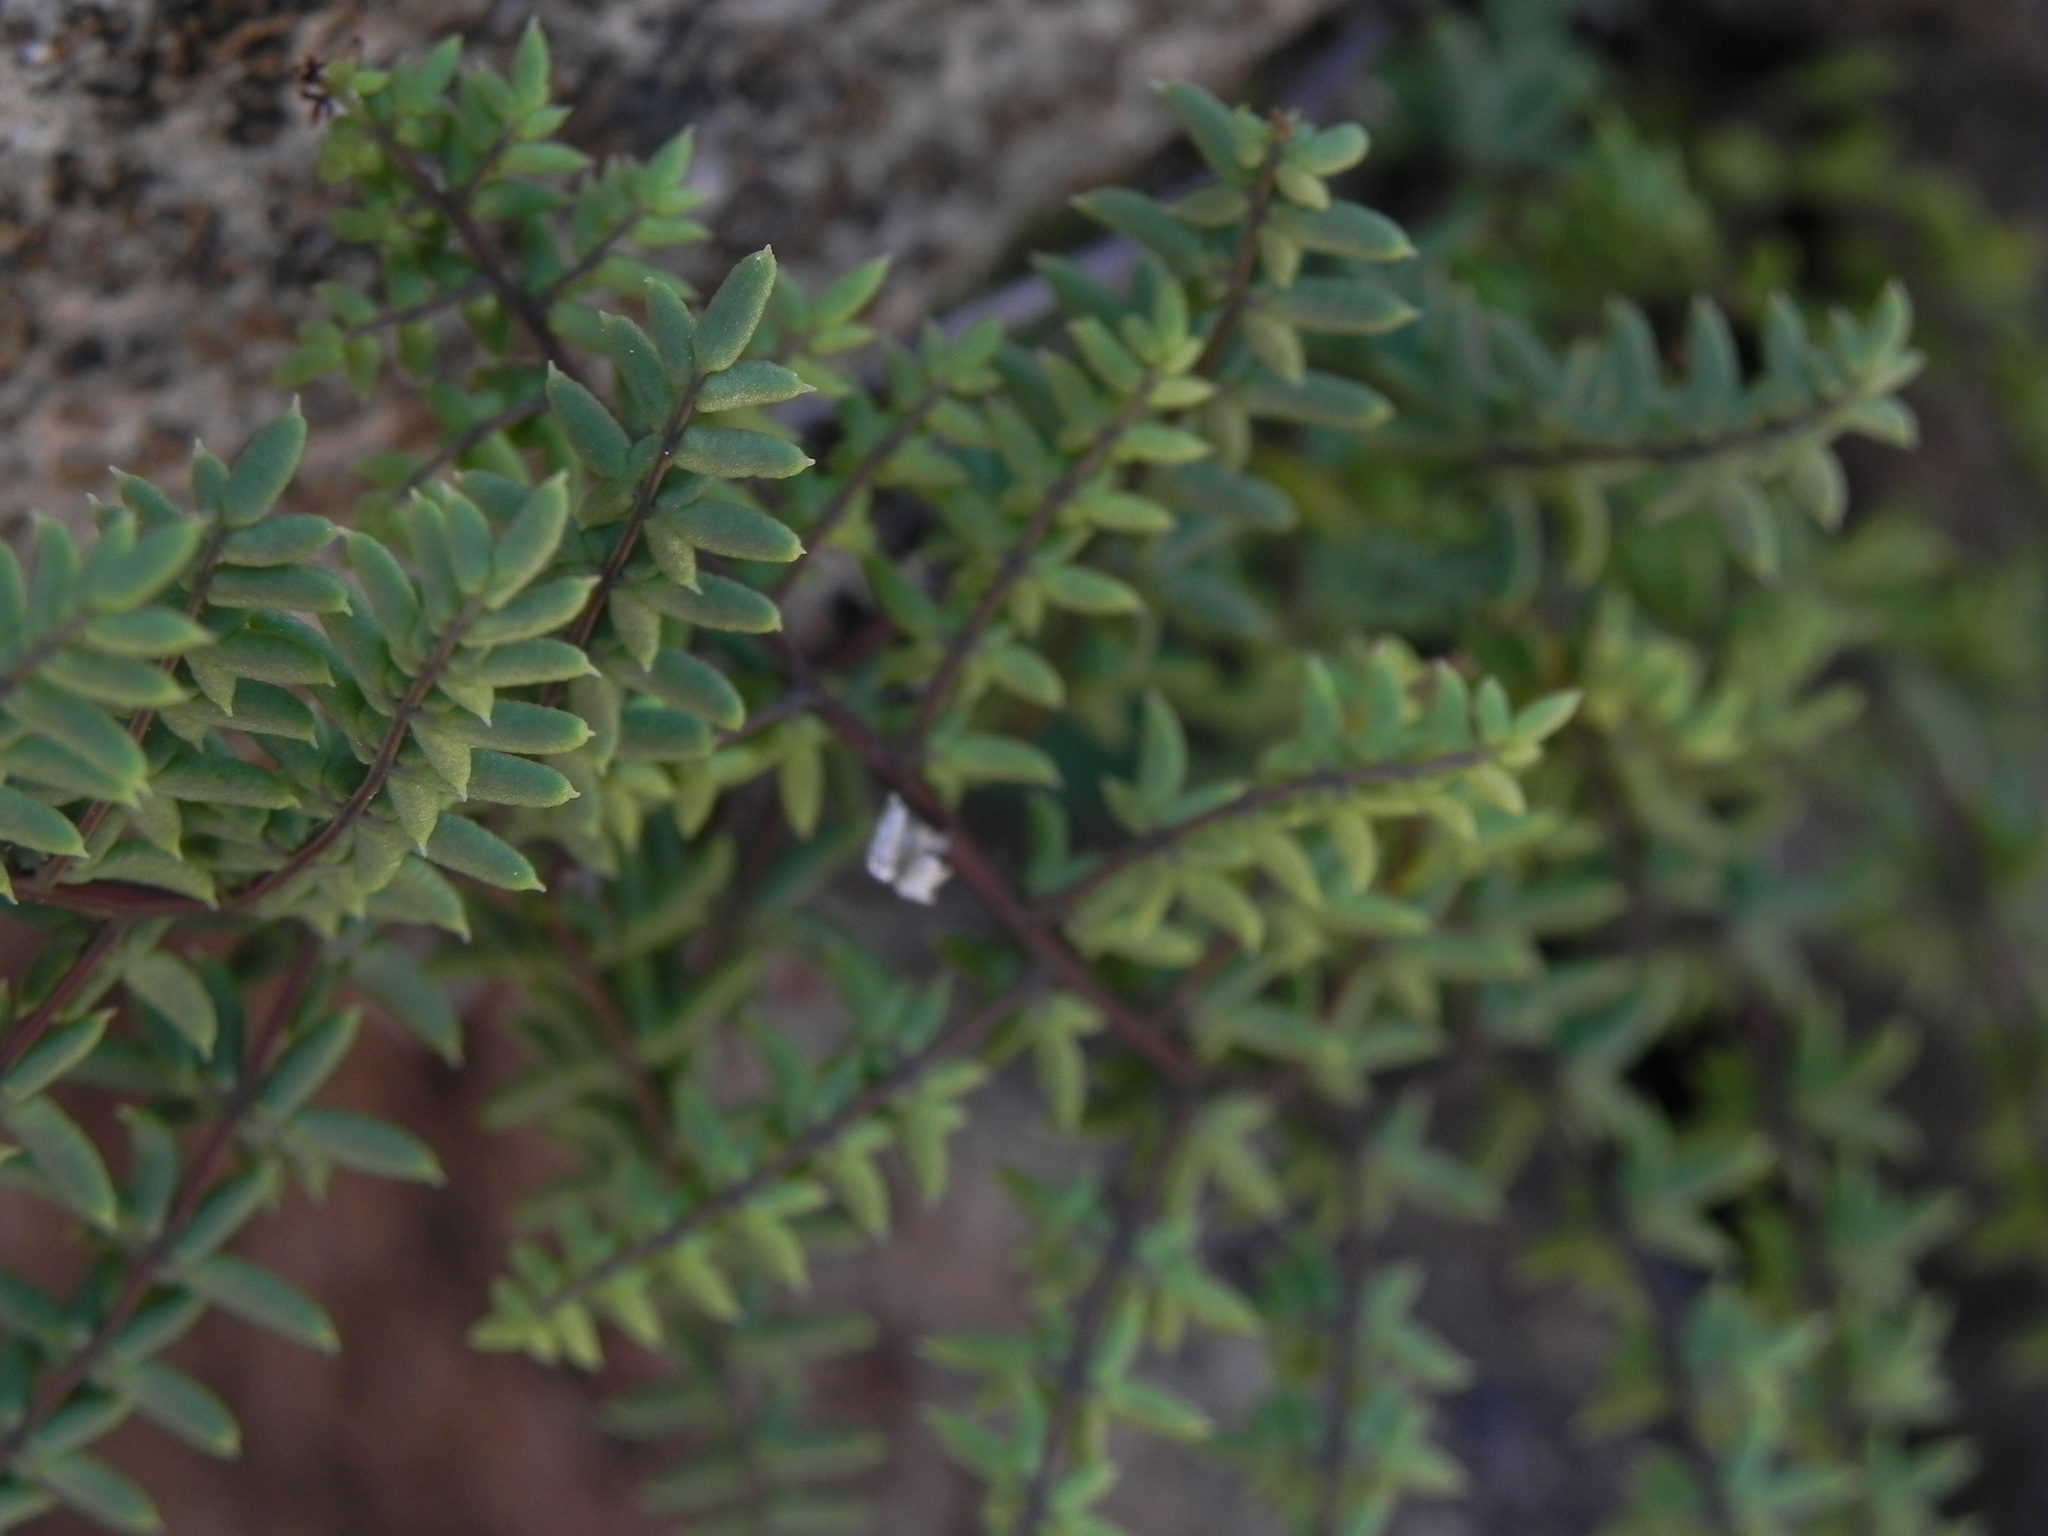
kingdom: Plantae
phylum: Tracheophyta
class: Polypodiopsida
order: Polypodiales
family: Pteridaceae
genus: Pellaea
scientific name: Pellaea mucronata
